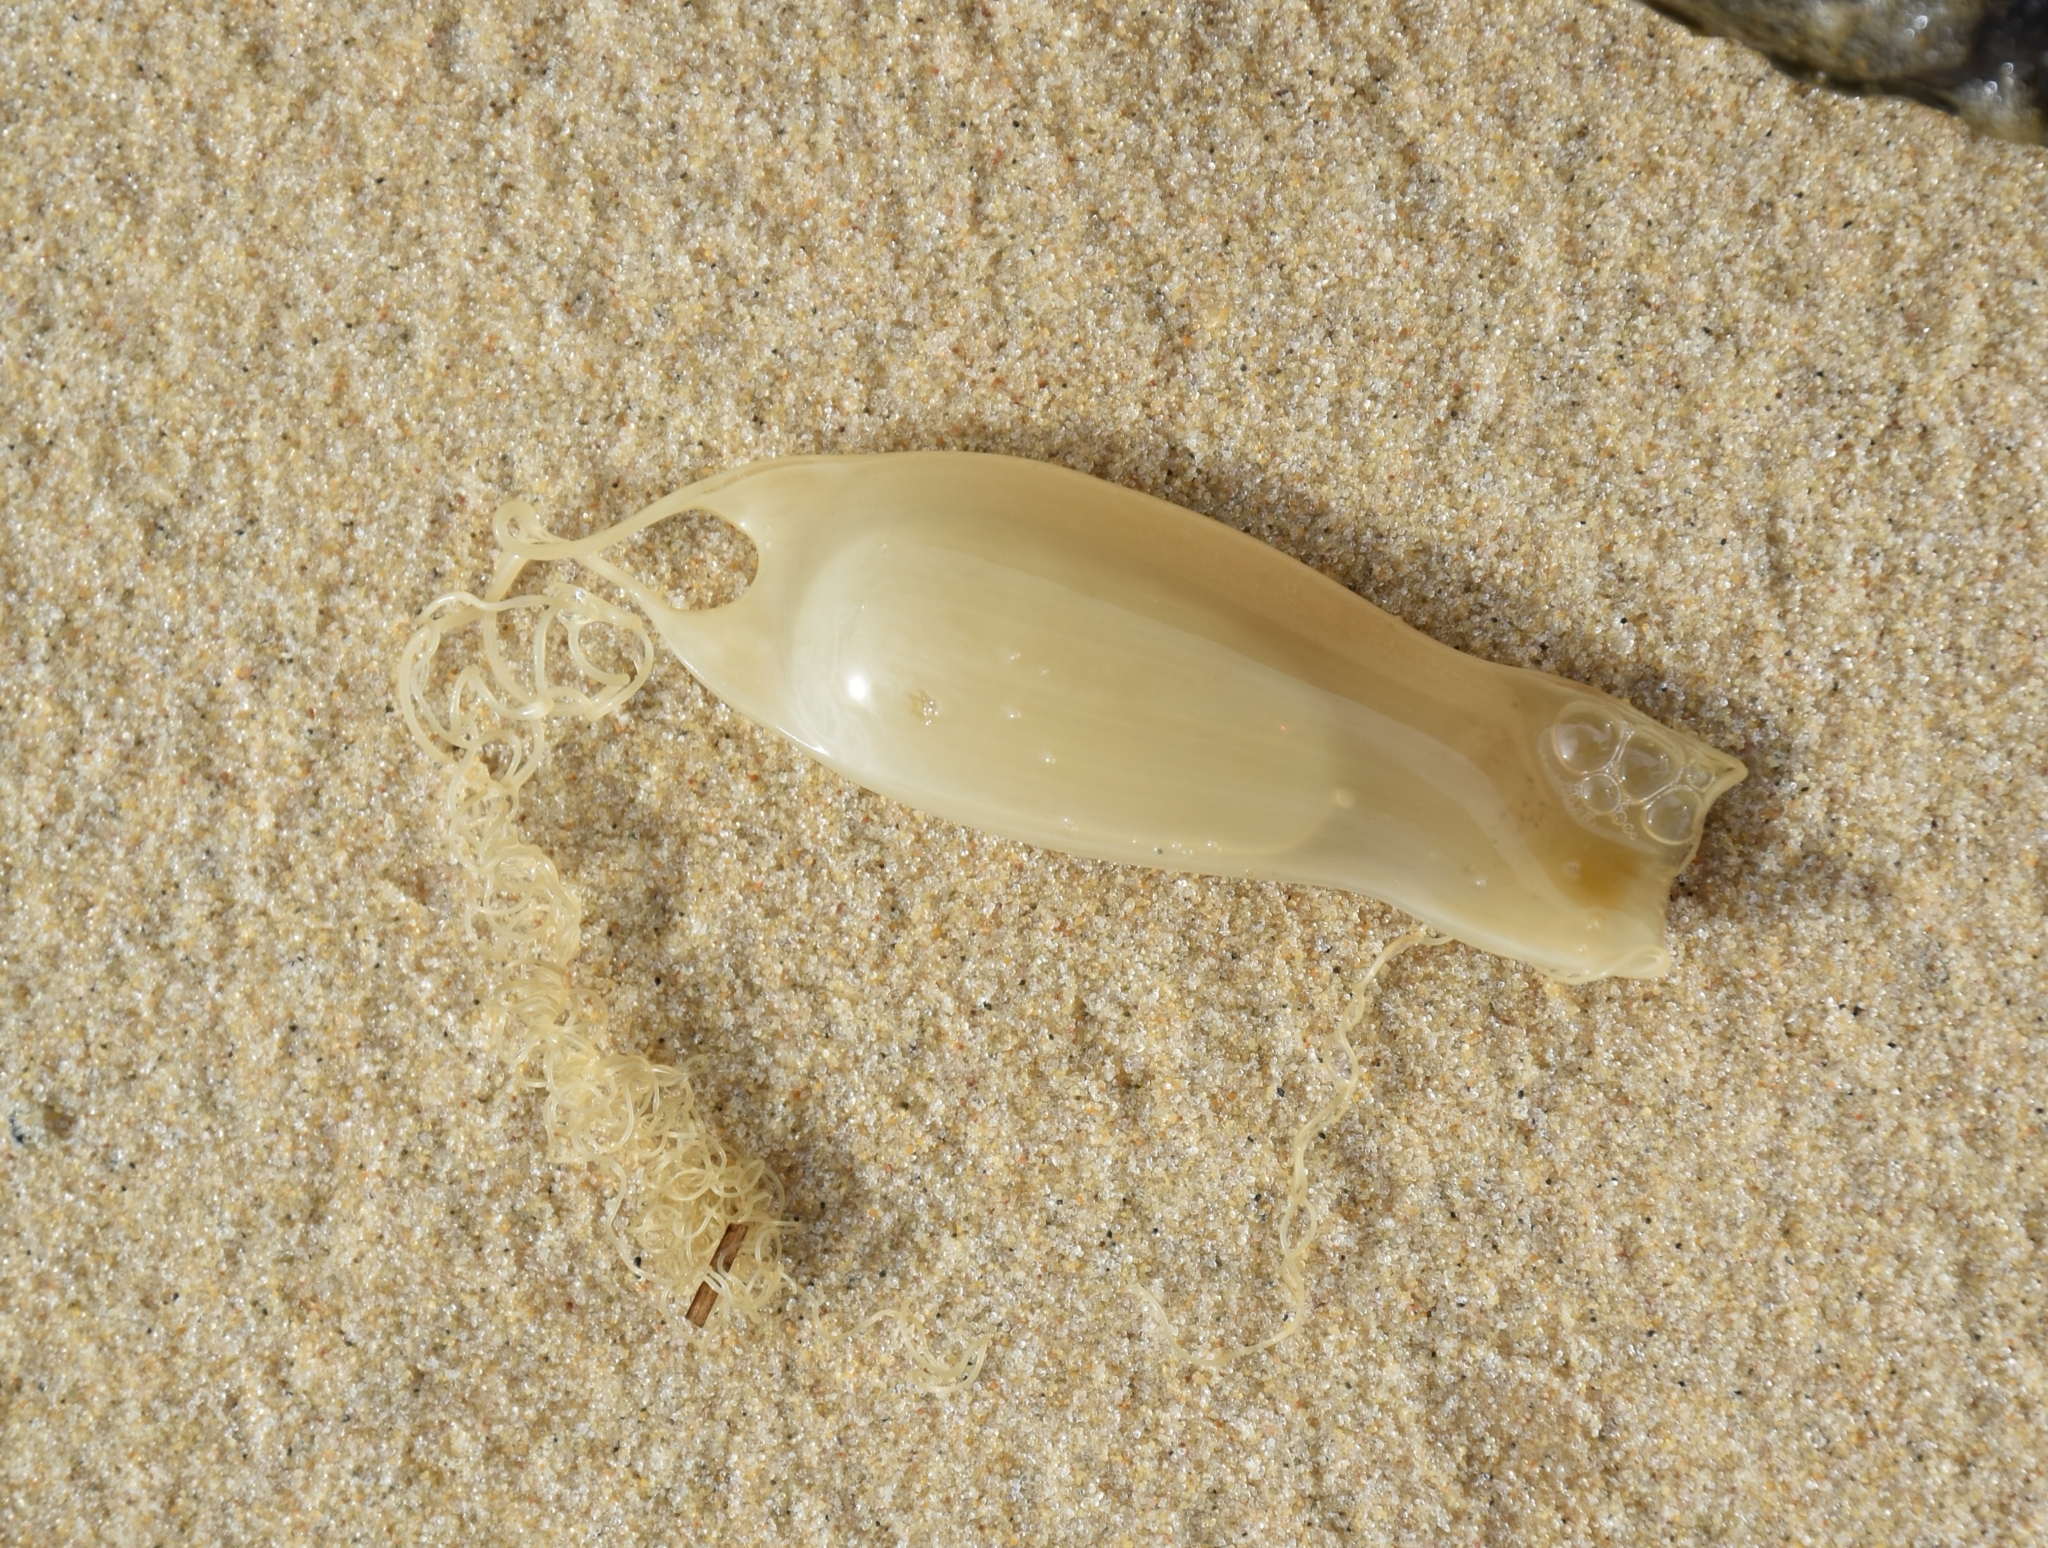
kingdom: Animalia
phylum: Chordata
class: Elasmobranchii
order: Carcharhiniformes
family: Scyliorhinidae
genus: Scyliorhinus
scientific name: Scyliorhinus canicula
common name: Lesser spotted dogfish
